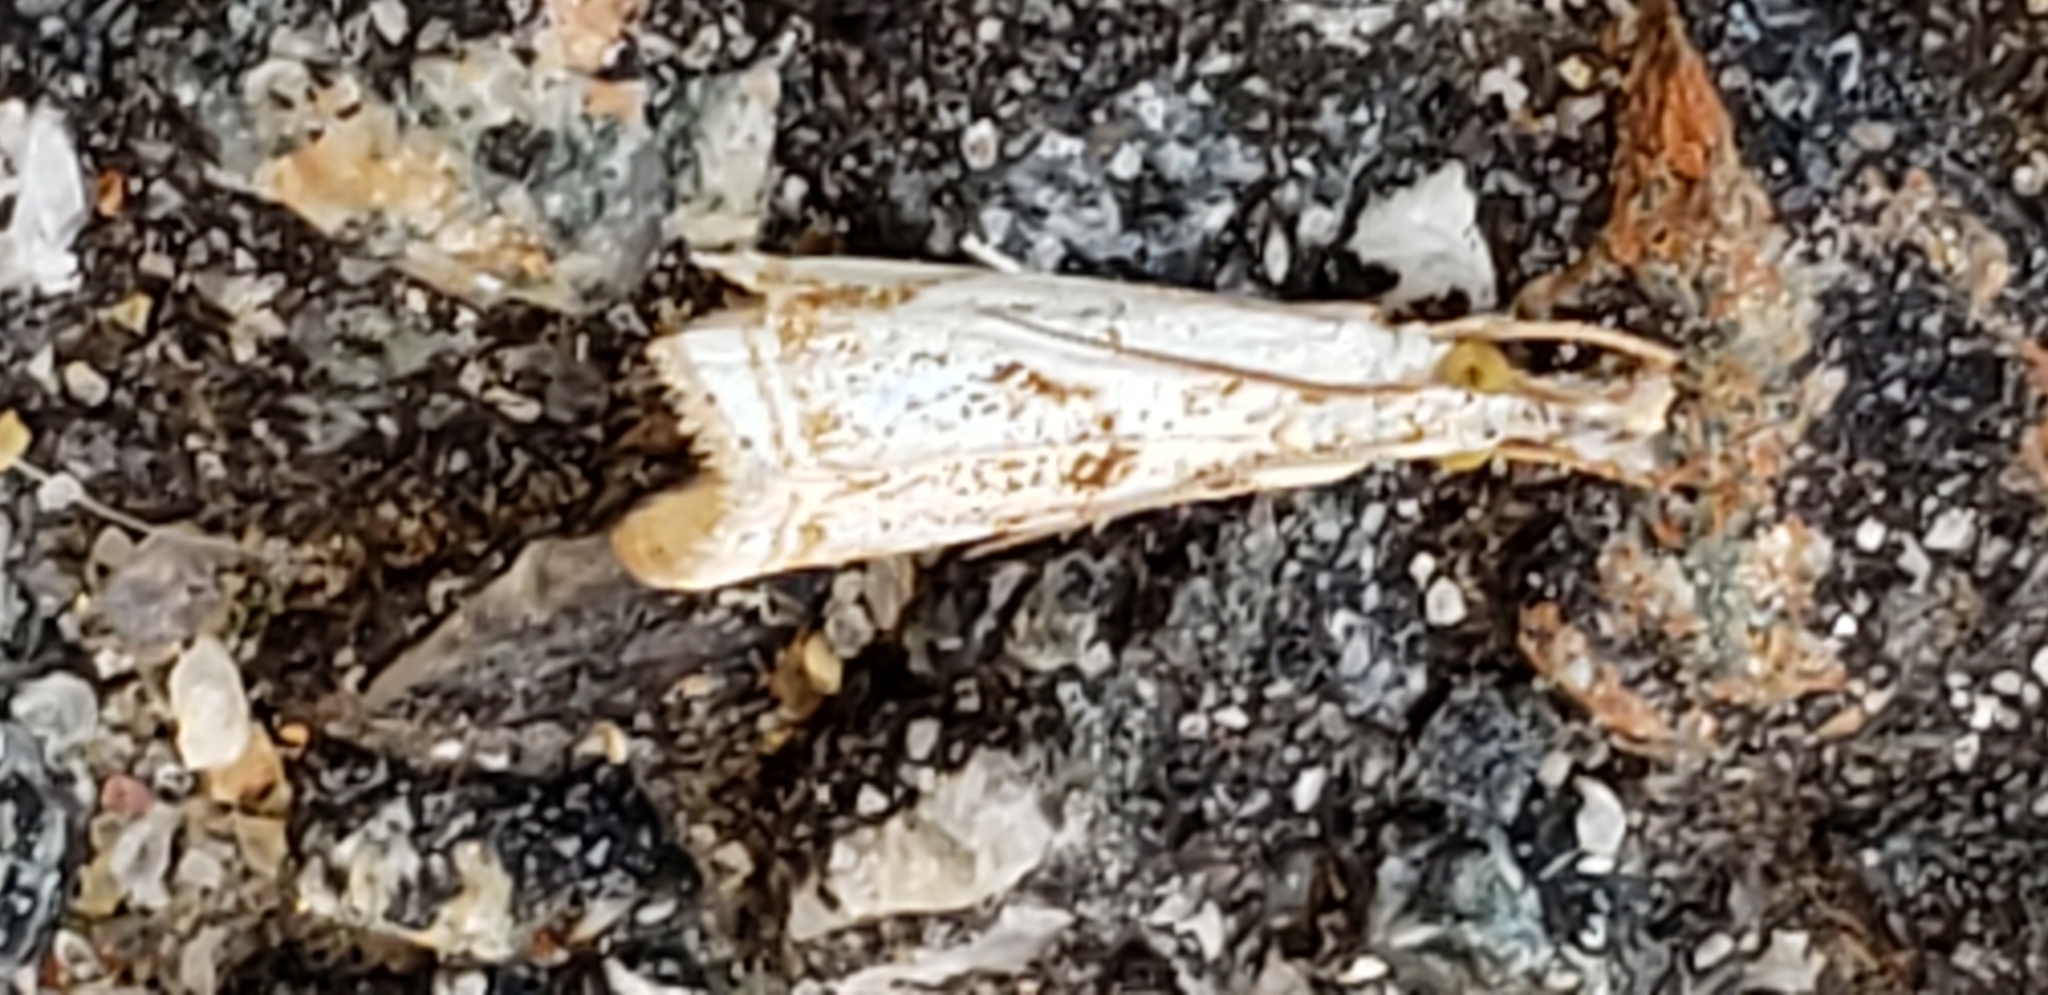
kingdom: Animalia
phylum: Arthropoda
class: Insecta
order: Lepidoptera
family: Crambidae
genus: Microcrambus
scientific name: Microcrambus elegans
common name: Elegant grass-veneer
